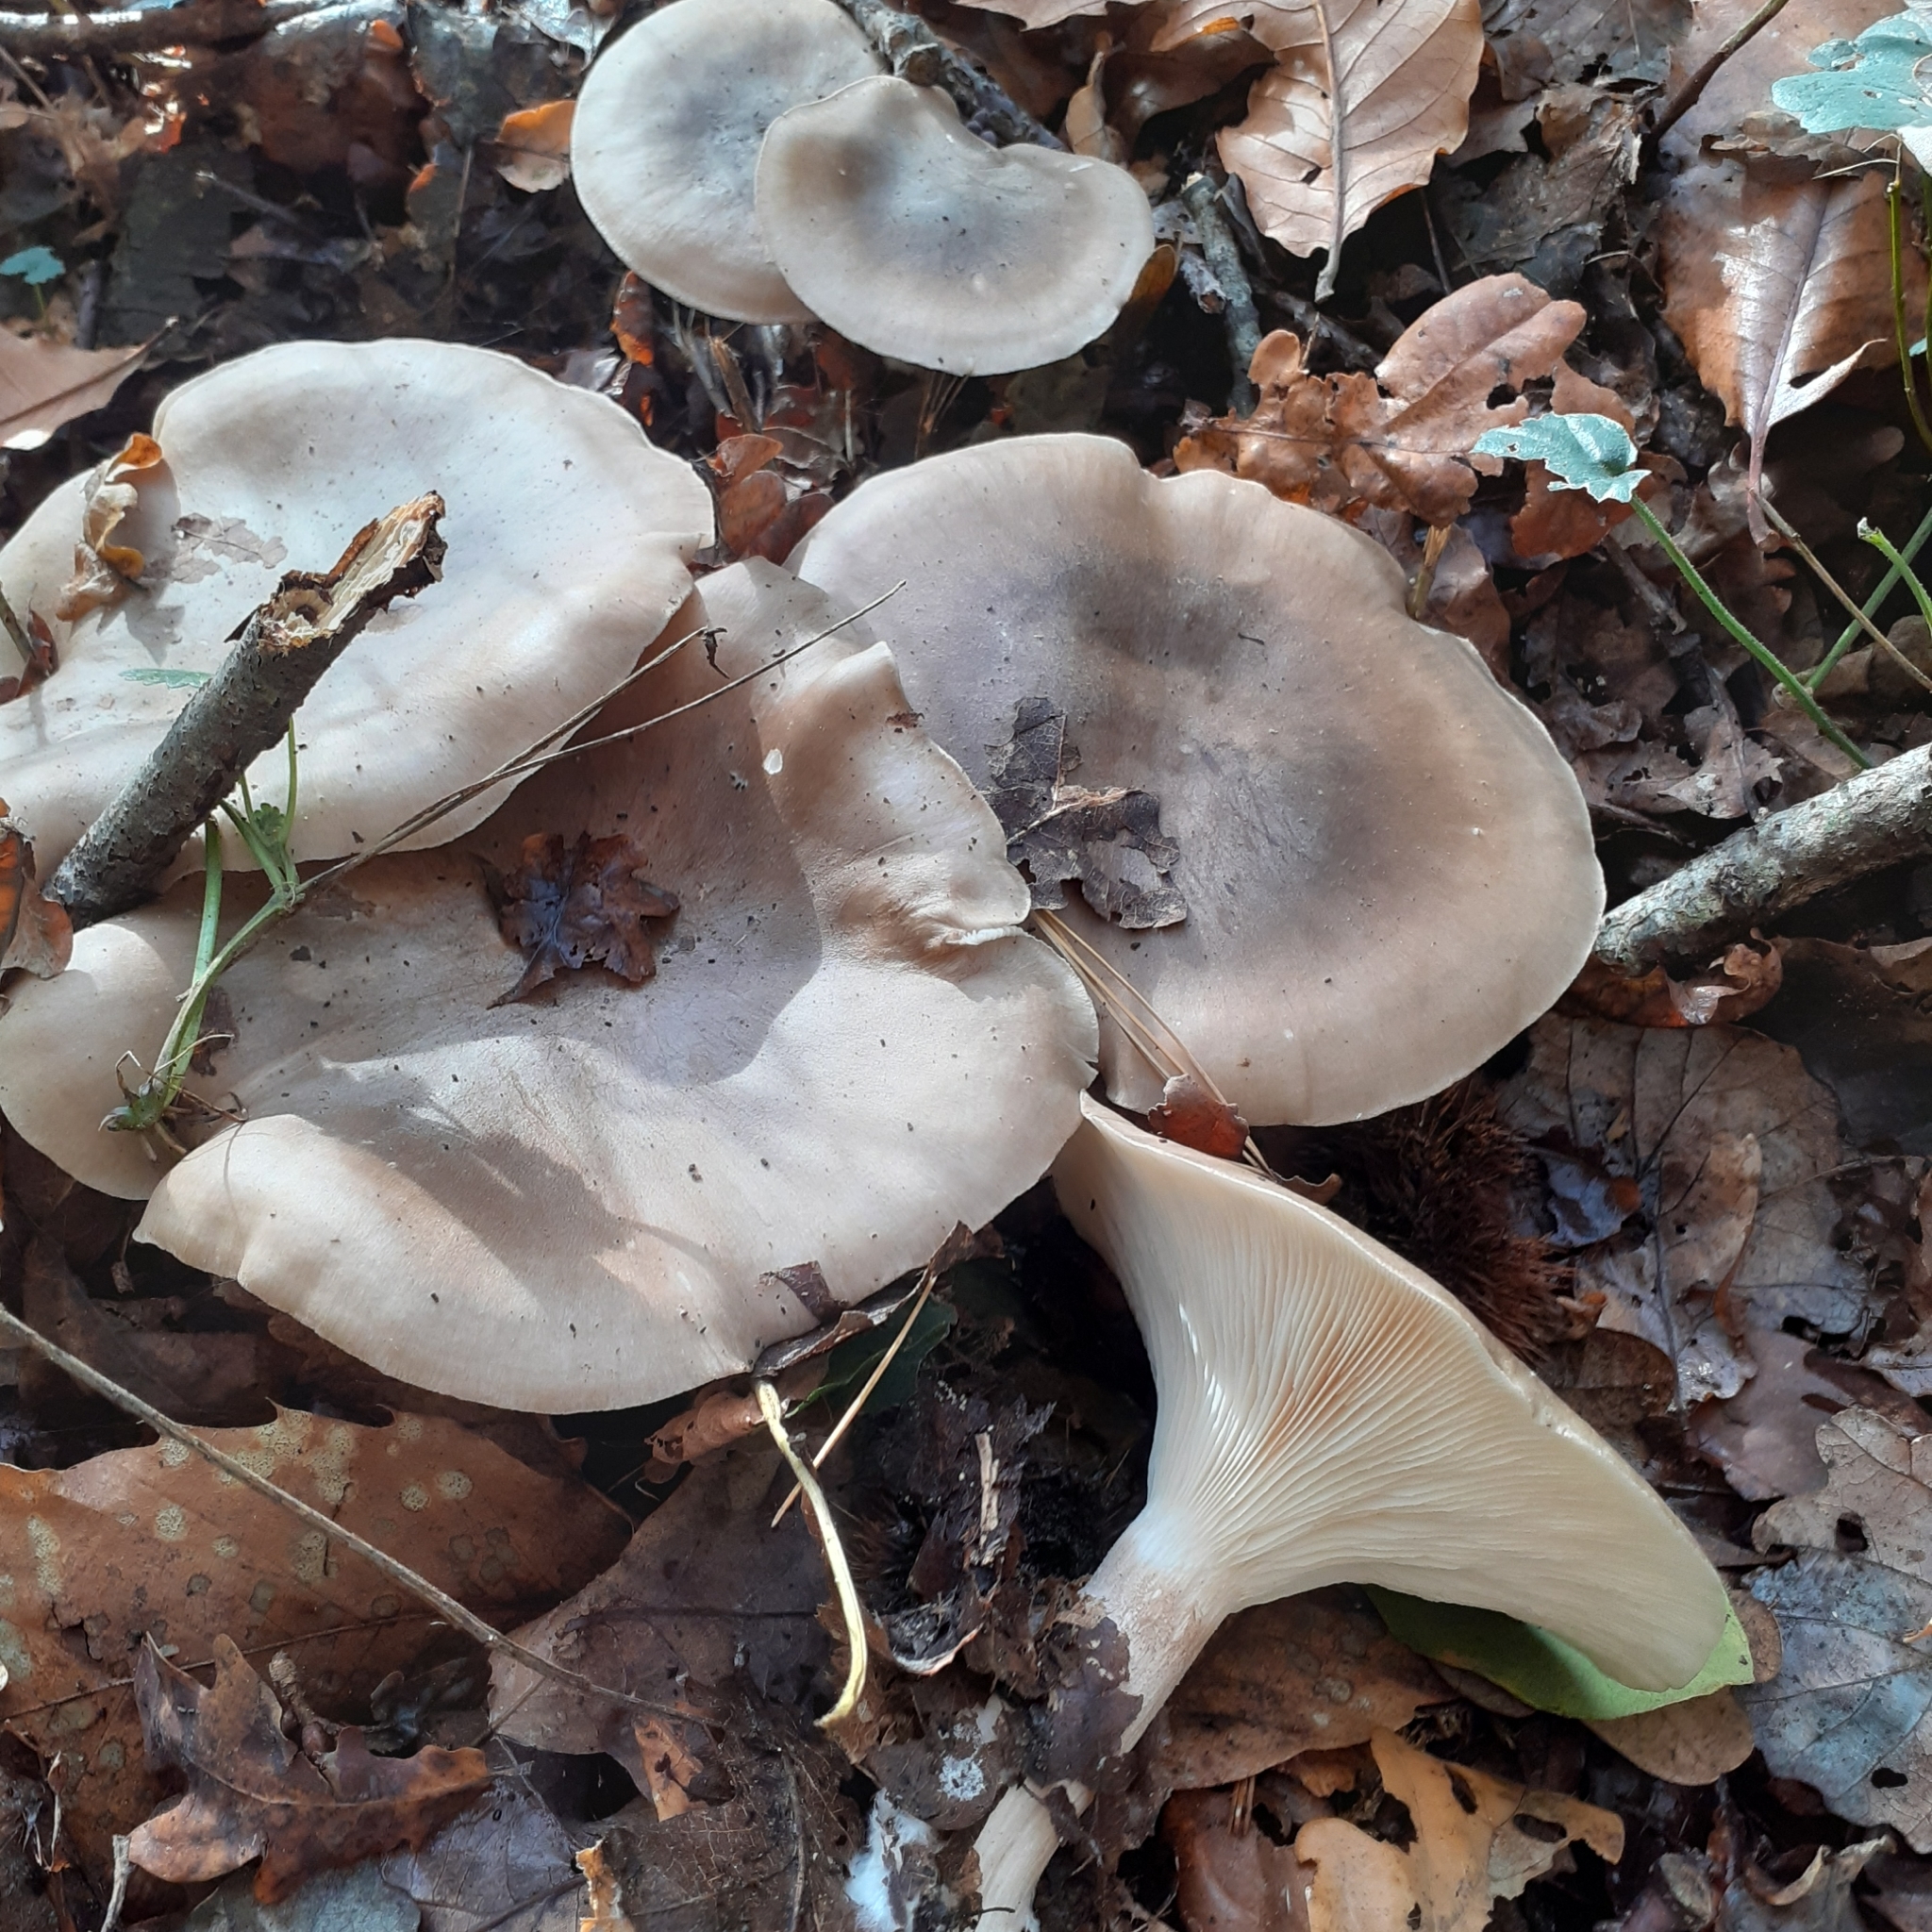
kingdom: Fungi
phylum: Basidiomycota
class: Agaricomycetes
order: Agaricales
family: Tricholomataceae
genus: Clitocybe
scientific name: Clitocybe nebularis
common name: Clouded agaric
